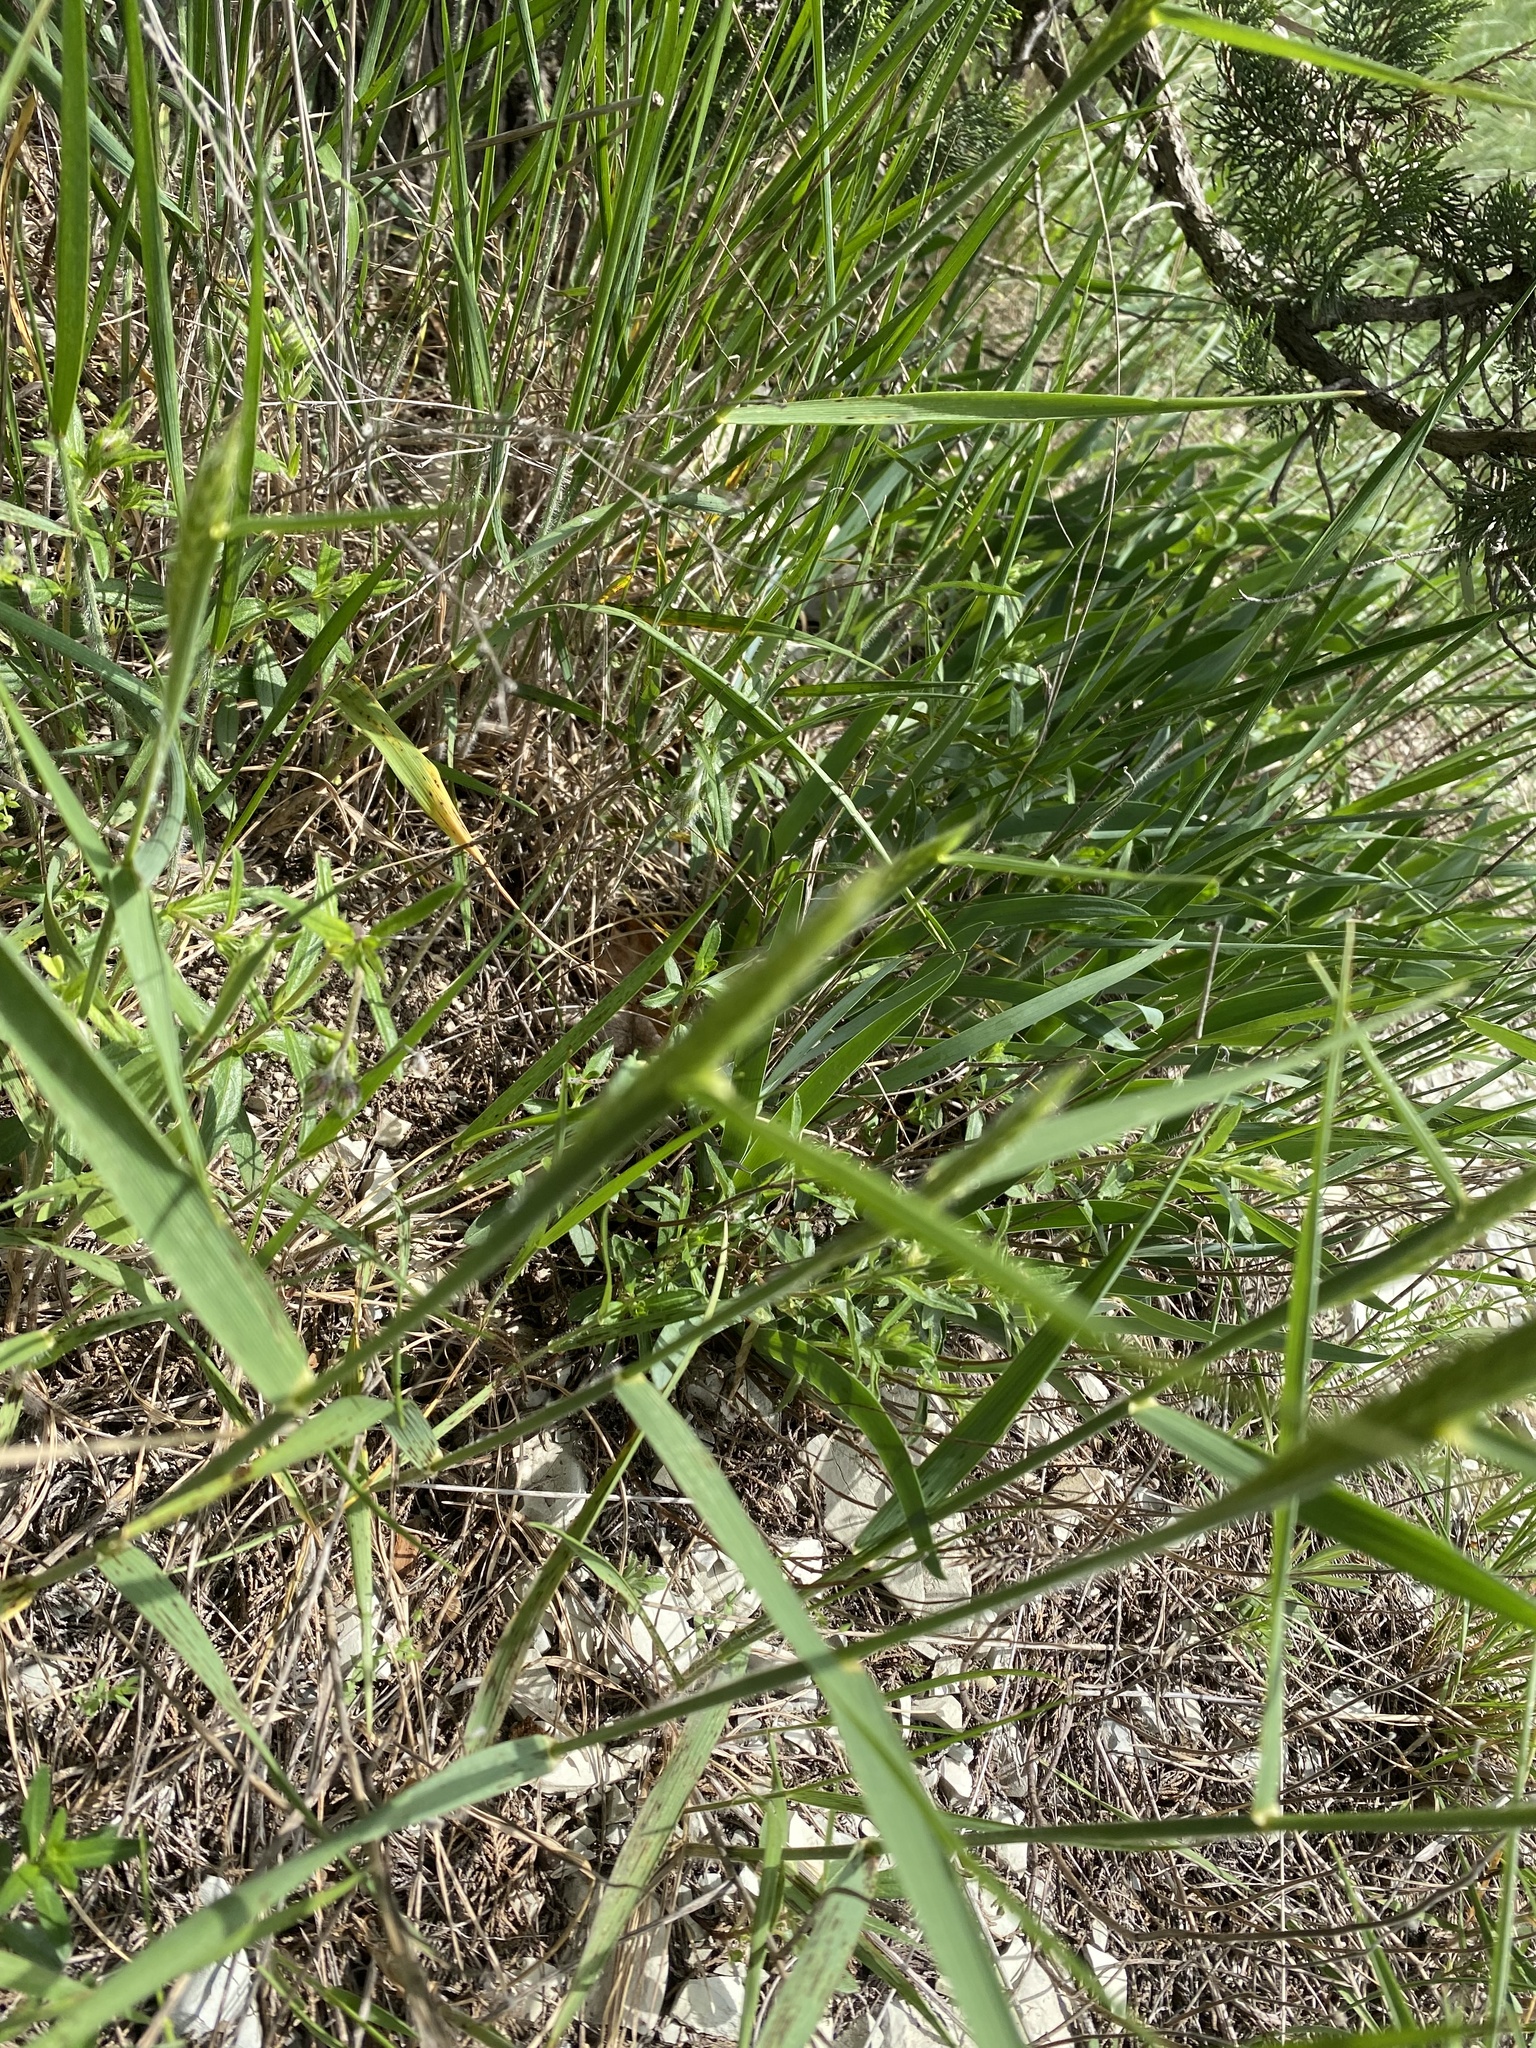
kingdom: Plantae
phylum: Tracheophyta
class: Liliopsida
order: Poales
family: Poaceae
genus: Agropyron
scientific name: Agropyron cristatum
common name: Crested wheatgrass
